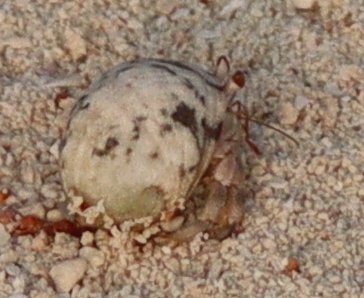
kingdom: Animalia
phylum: Arthropoda
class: Malacostraca
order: Decapoda
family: Coenobitidae
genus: Coenobita
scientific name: Coenobita scaevola
